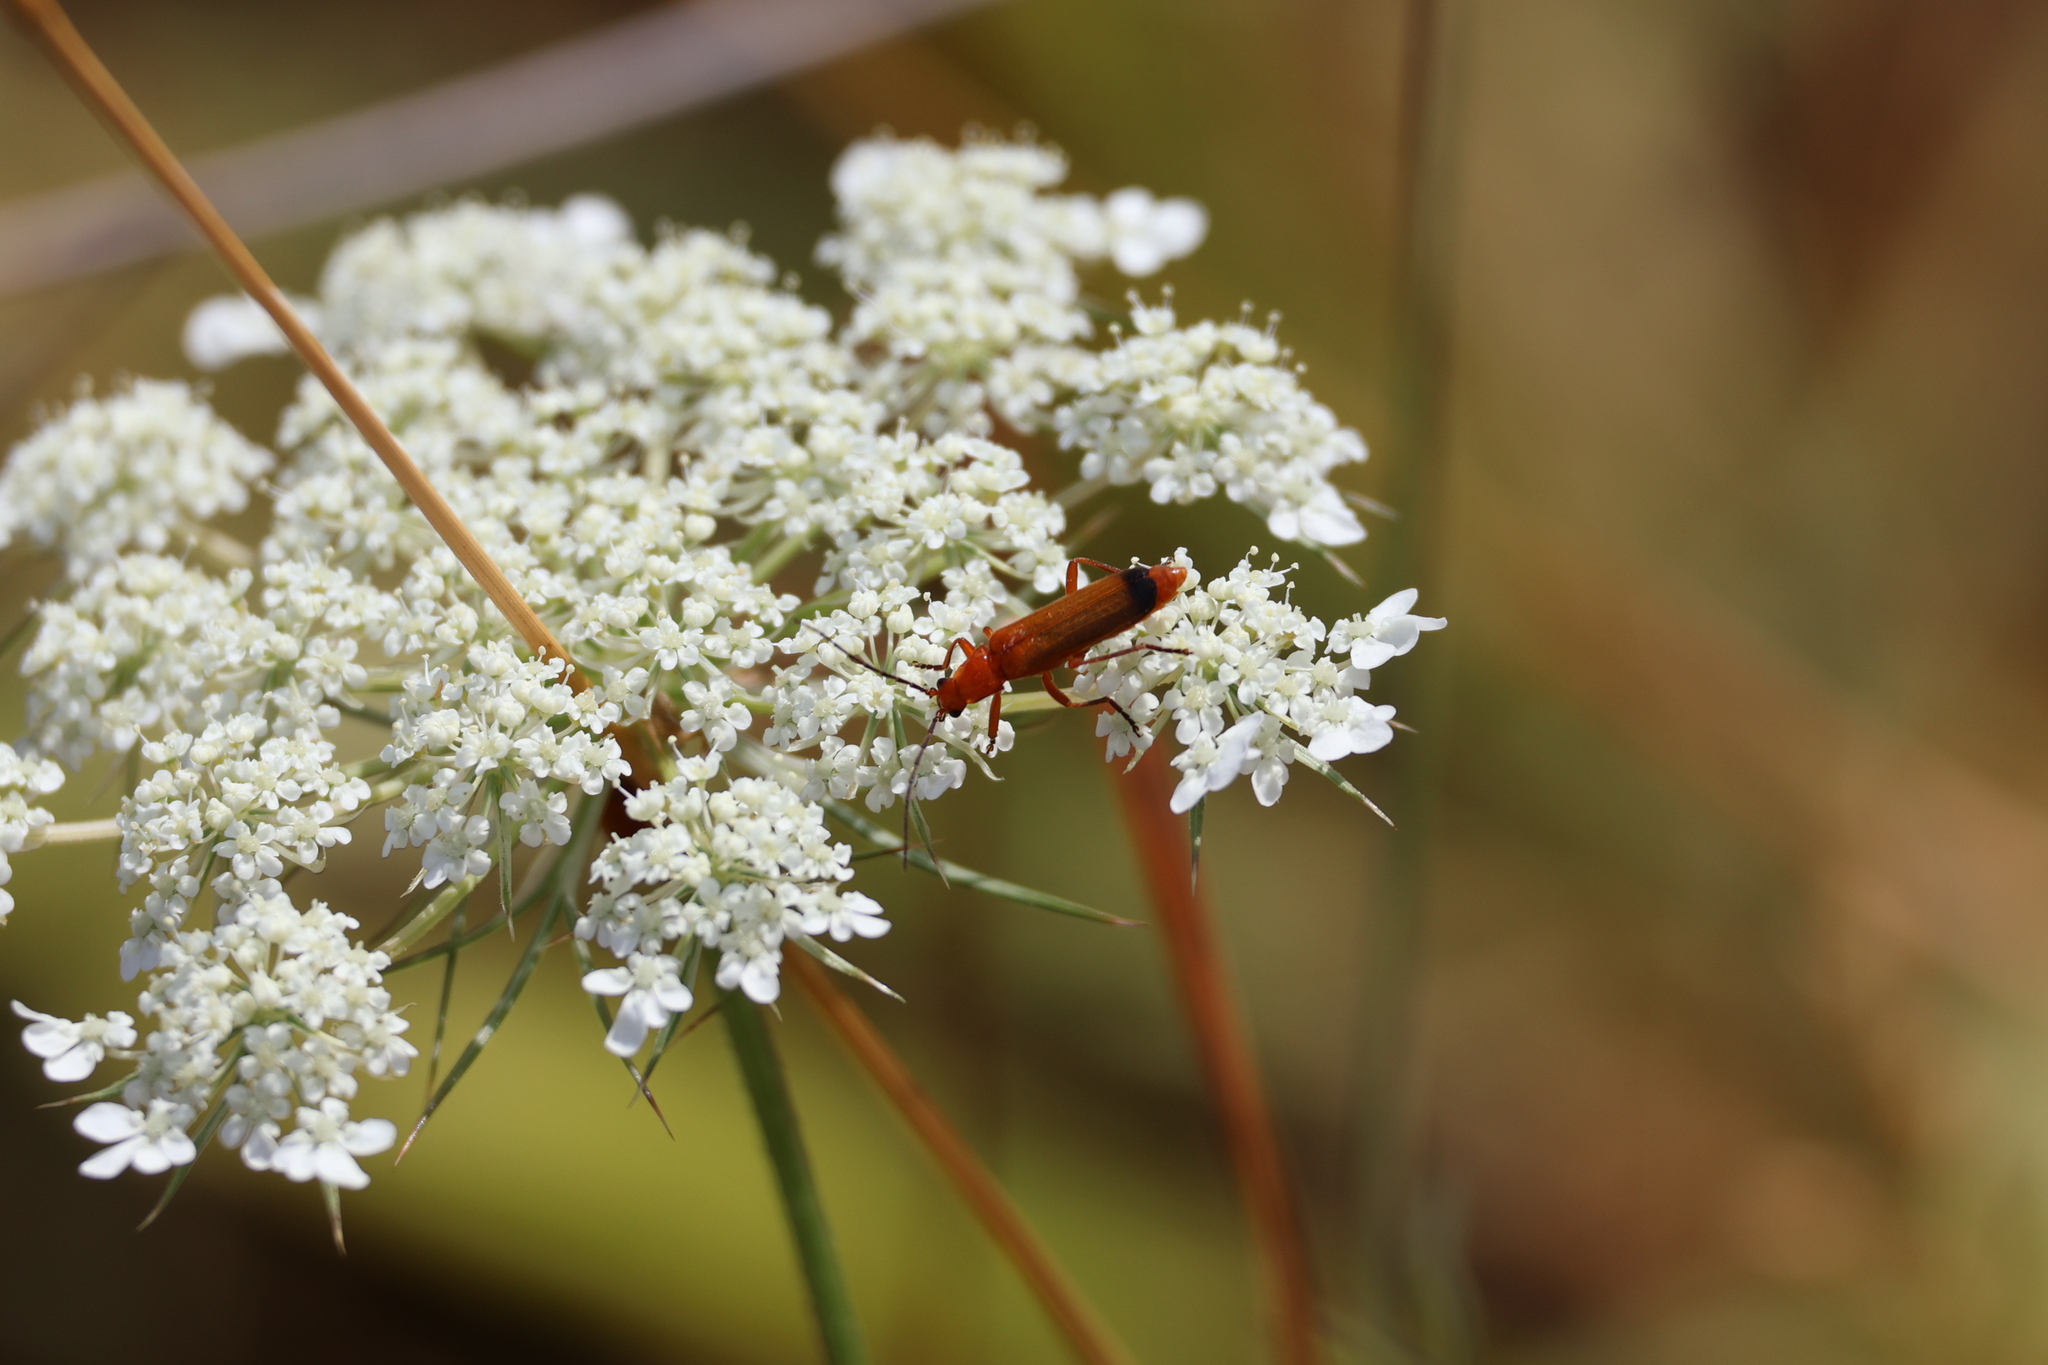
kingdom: Animalia
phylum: Arthropoda
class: Insecta
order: Coleoptera
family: Cantharidae
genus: Rhagonycha
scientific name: Rhagonycha fulva
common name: Common red soldier beetle
